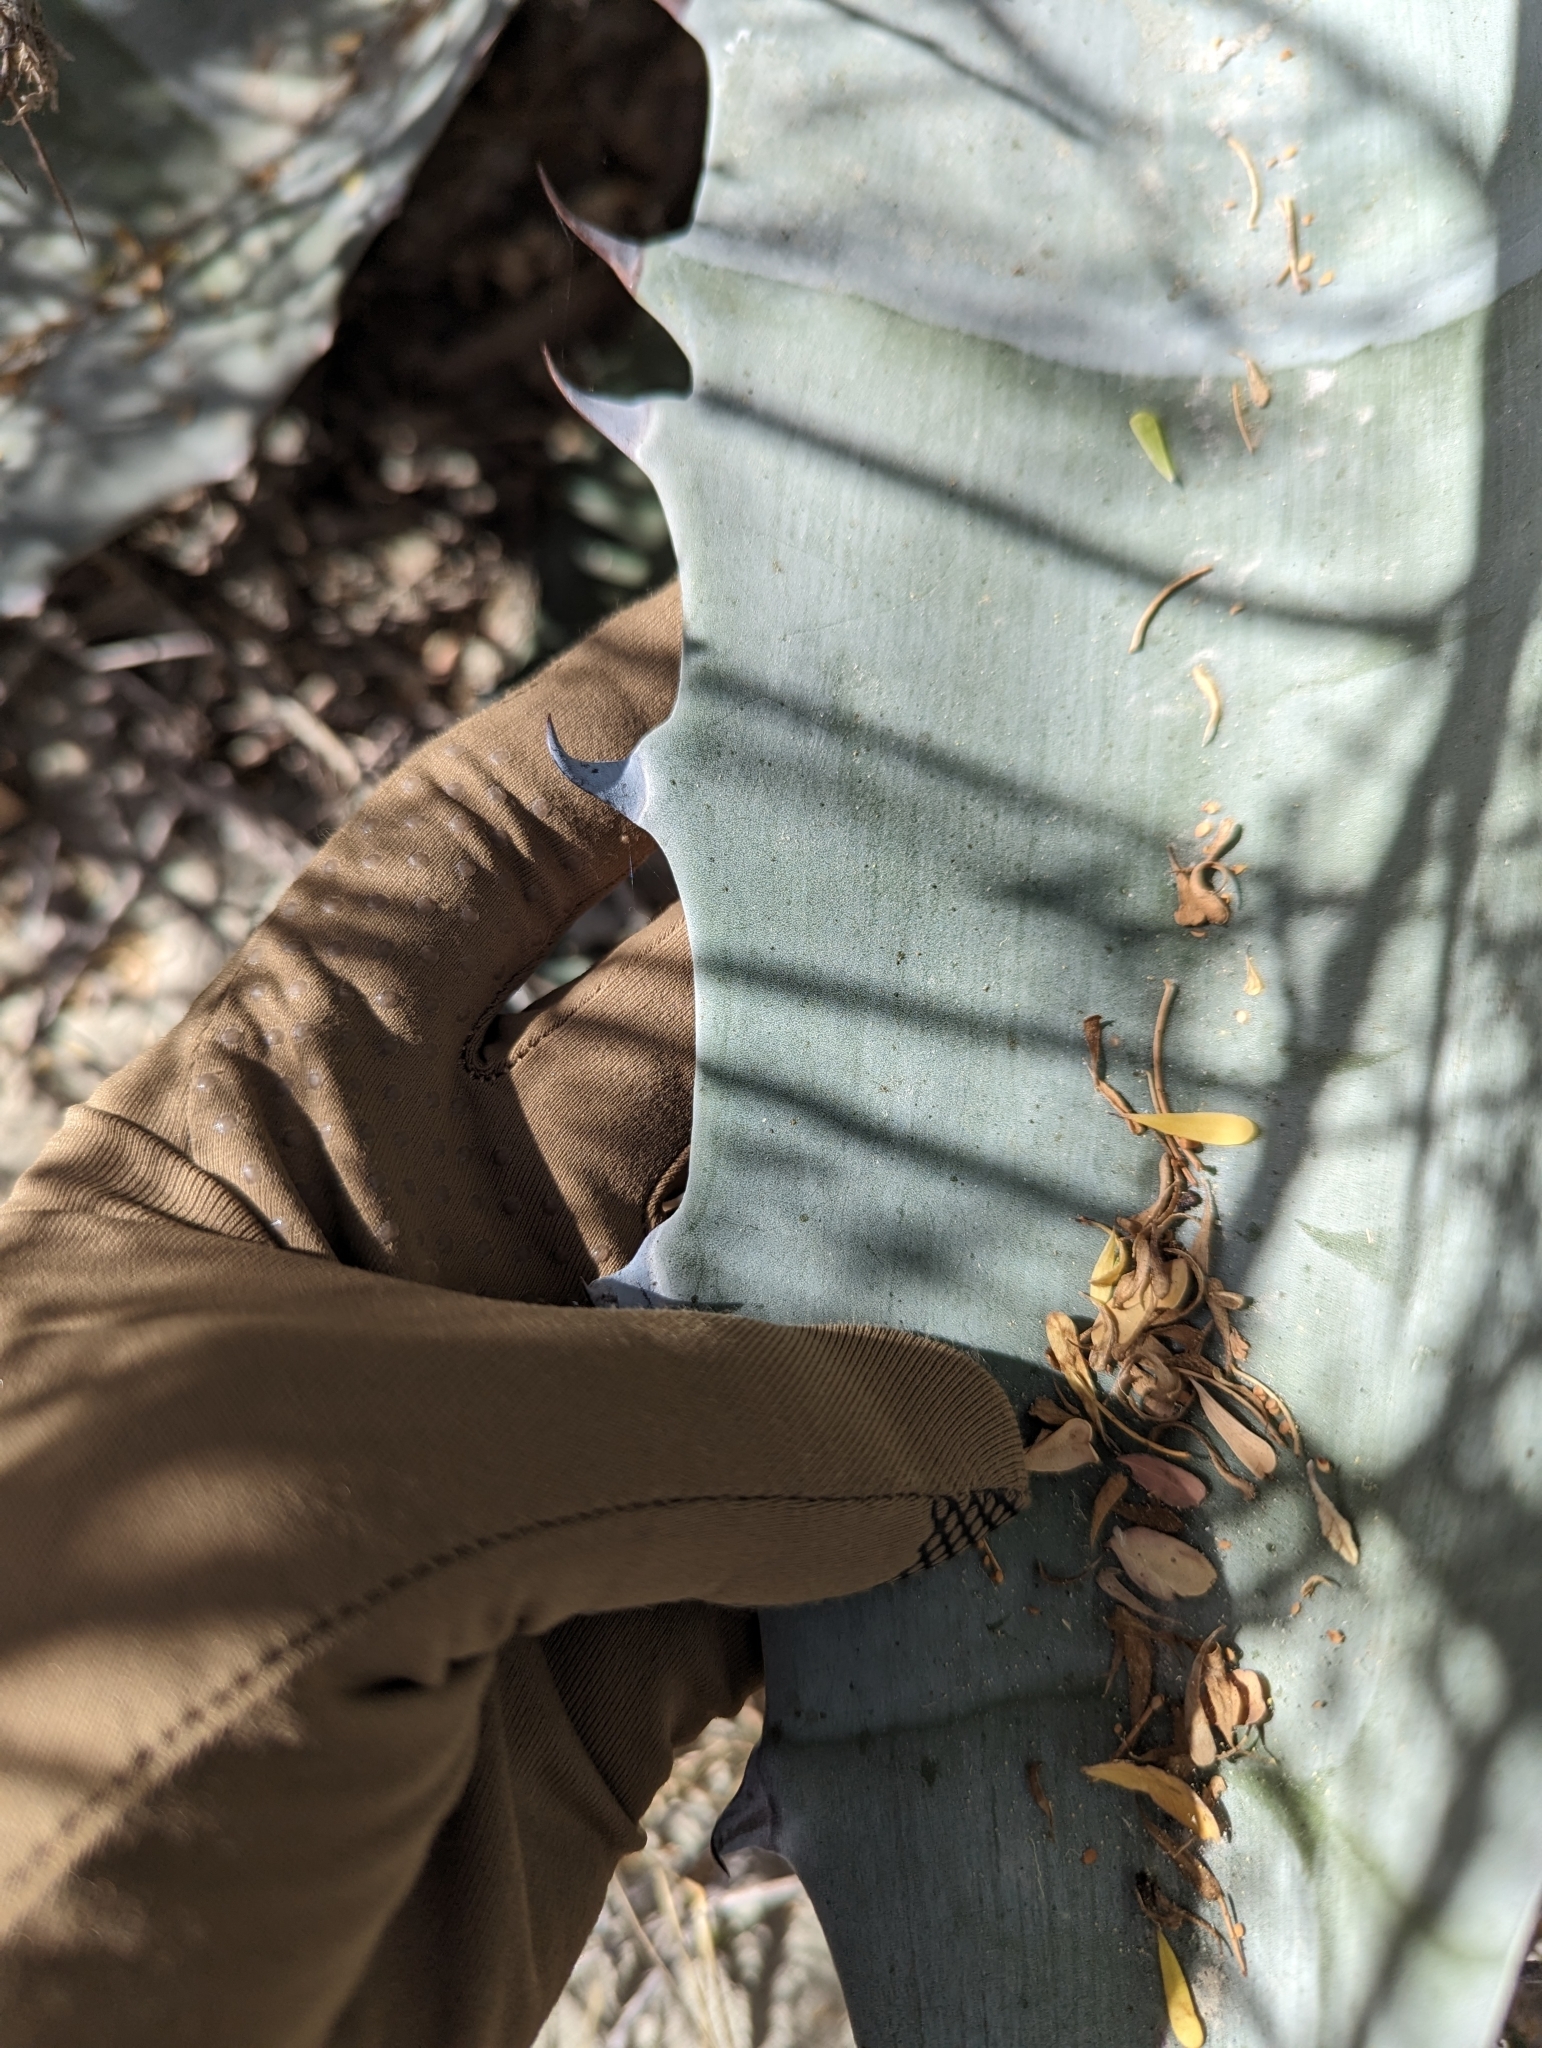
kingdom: Plantae
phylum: Tracheophyta
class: Liliopsida
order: Asparagales
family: Asparagaceae
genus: Agave
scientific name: Agave sobria
